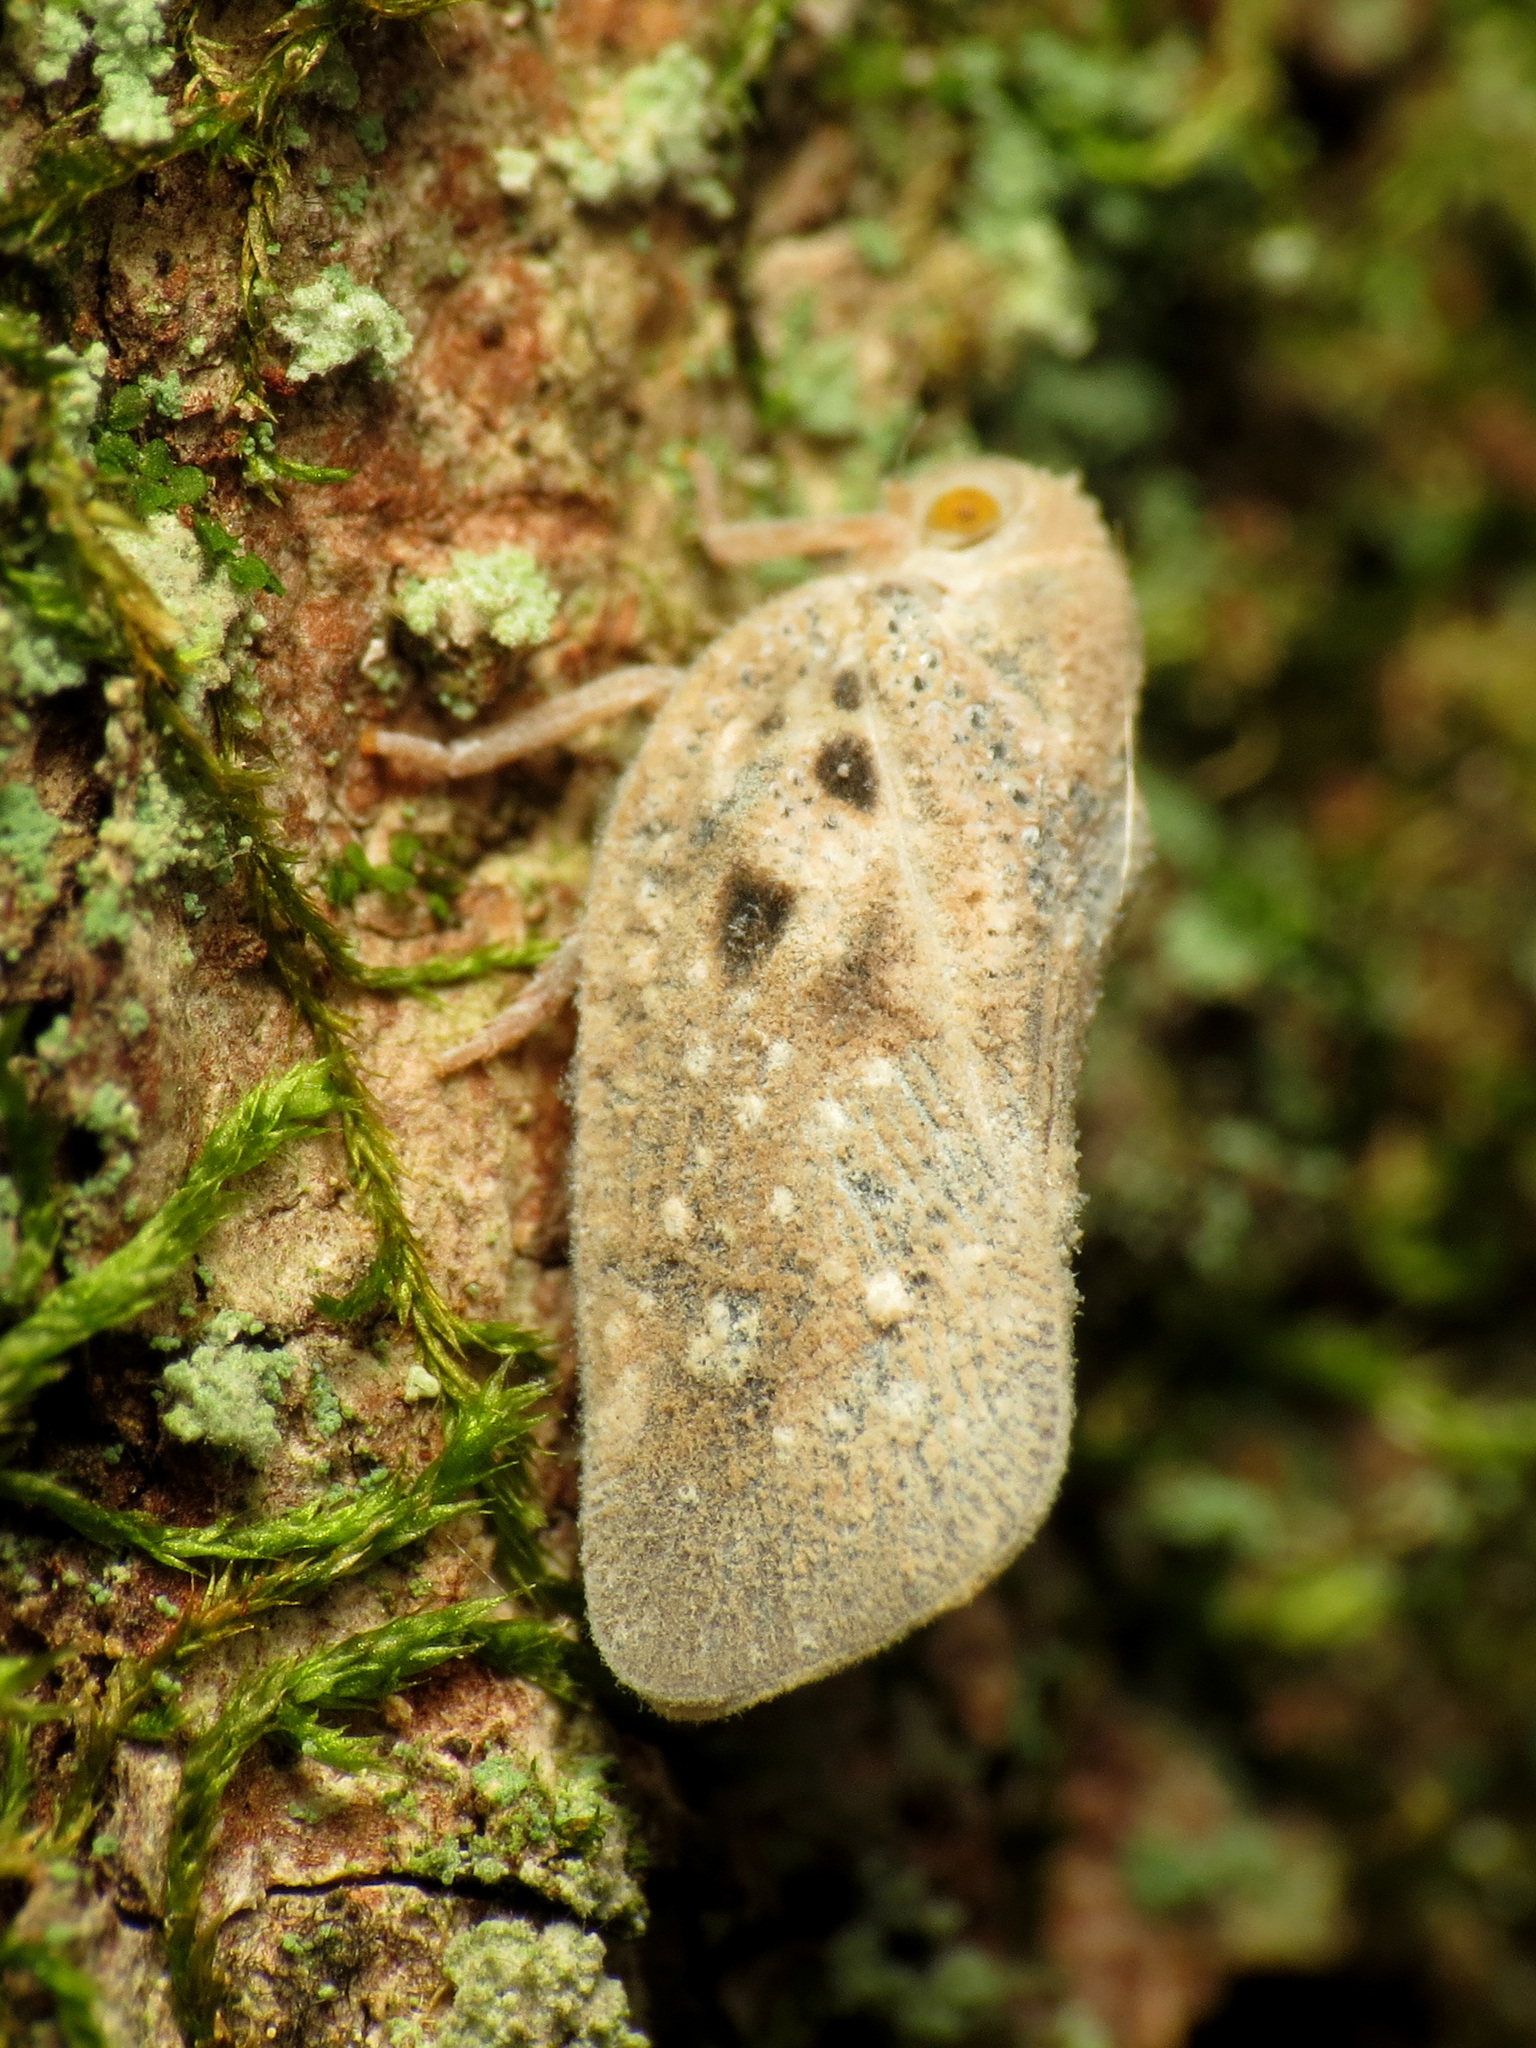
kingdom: Animalia
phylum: Arthropoda
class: Insecta
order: Hemiptera
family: Flatidae
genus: Metcalfa
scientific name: Metcalfa pruinosa
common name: Citrus flatid planthopper
